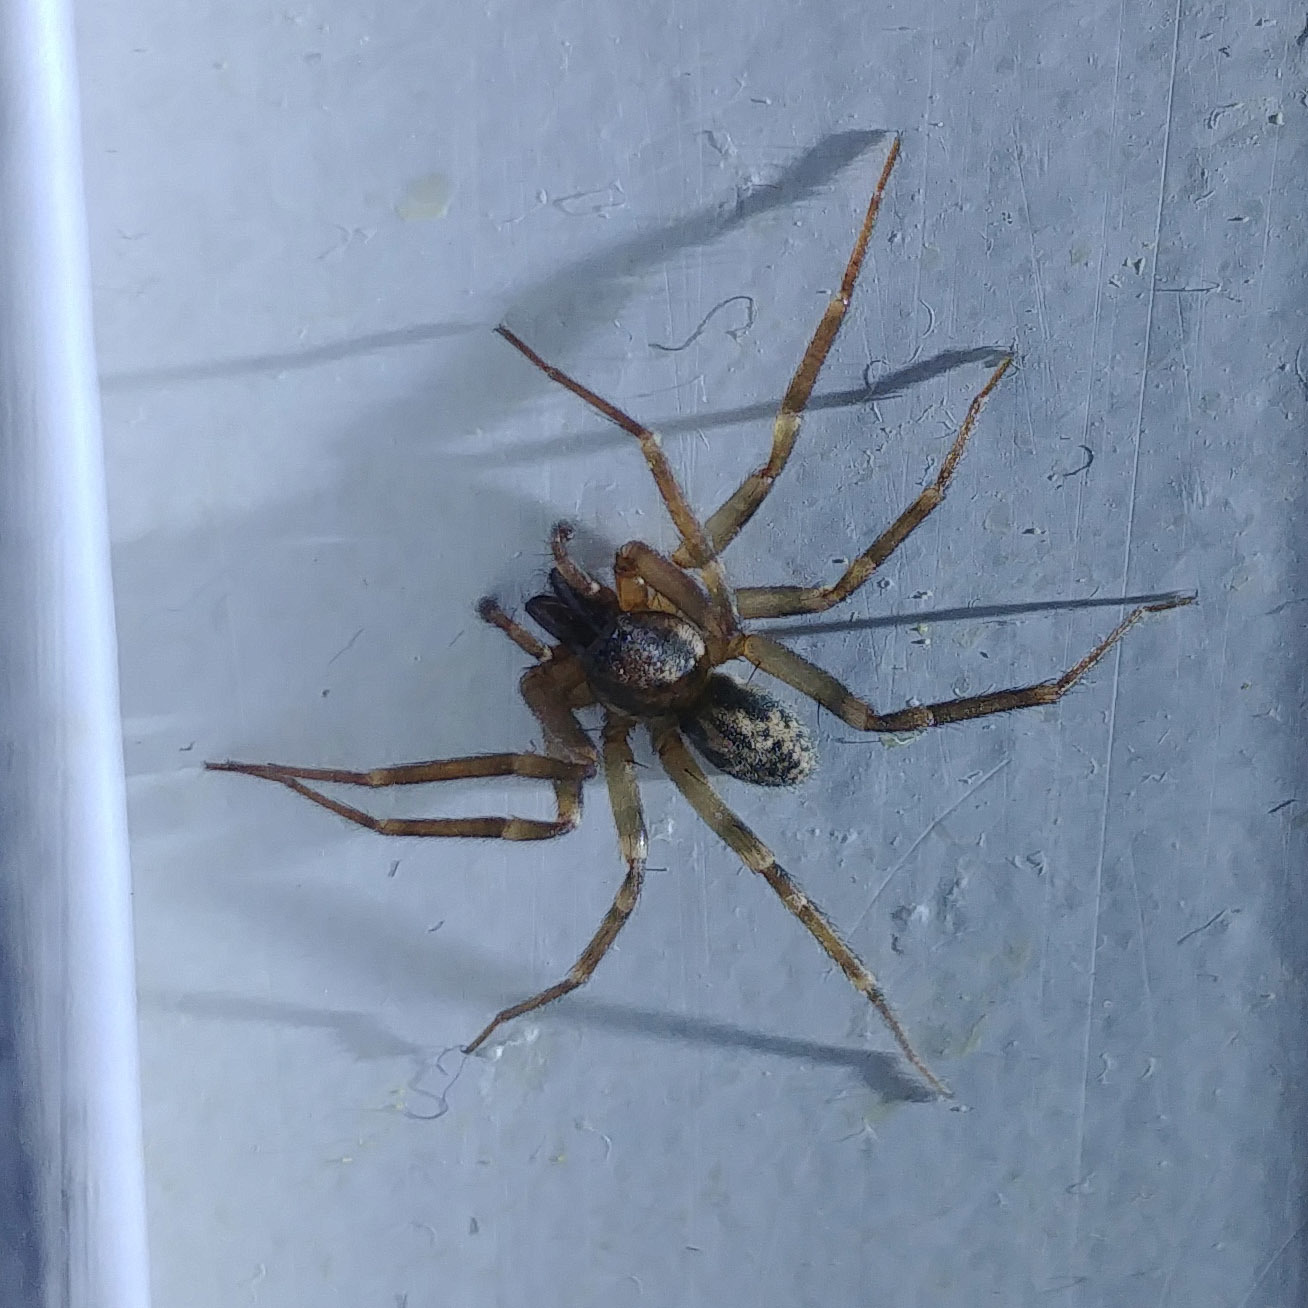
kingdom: Animalia
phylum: Arthropoda
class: Arachnida
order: Araneae
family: Liocranidae
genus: Liocranum
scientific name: Liocranum rupicola
